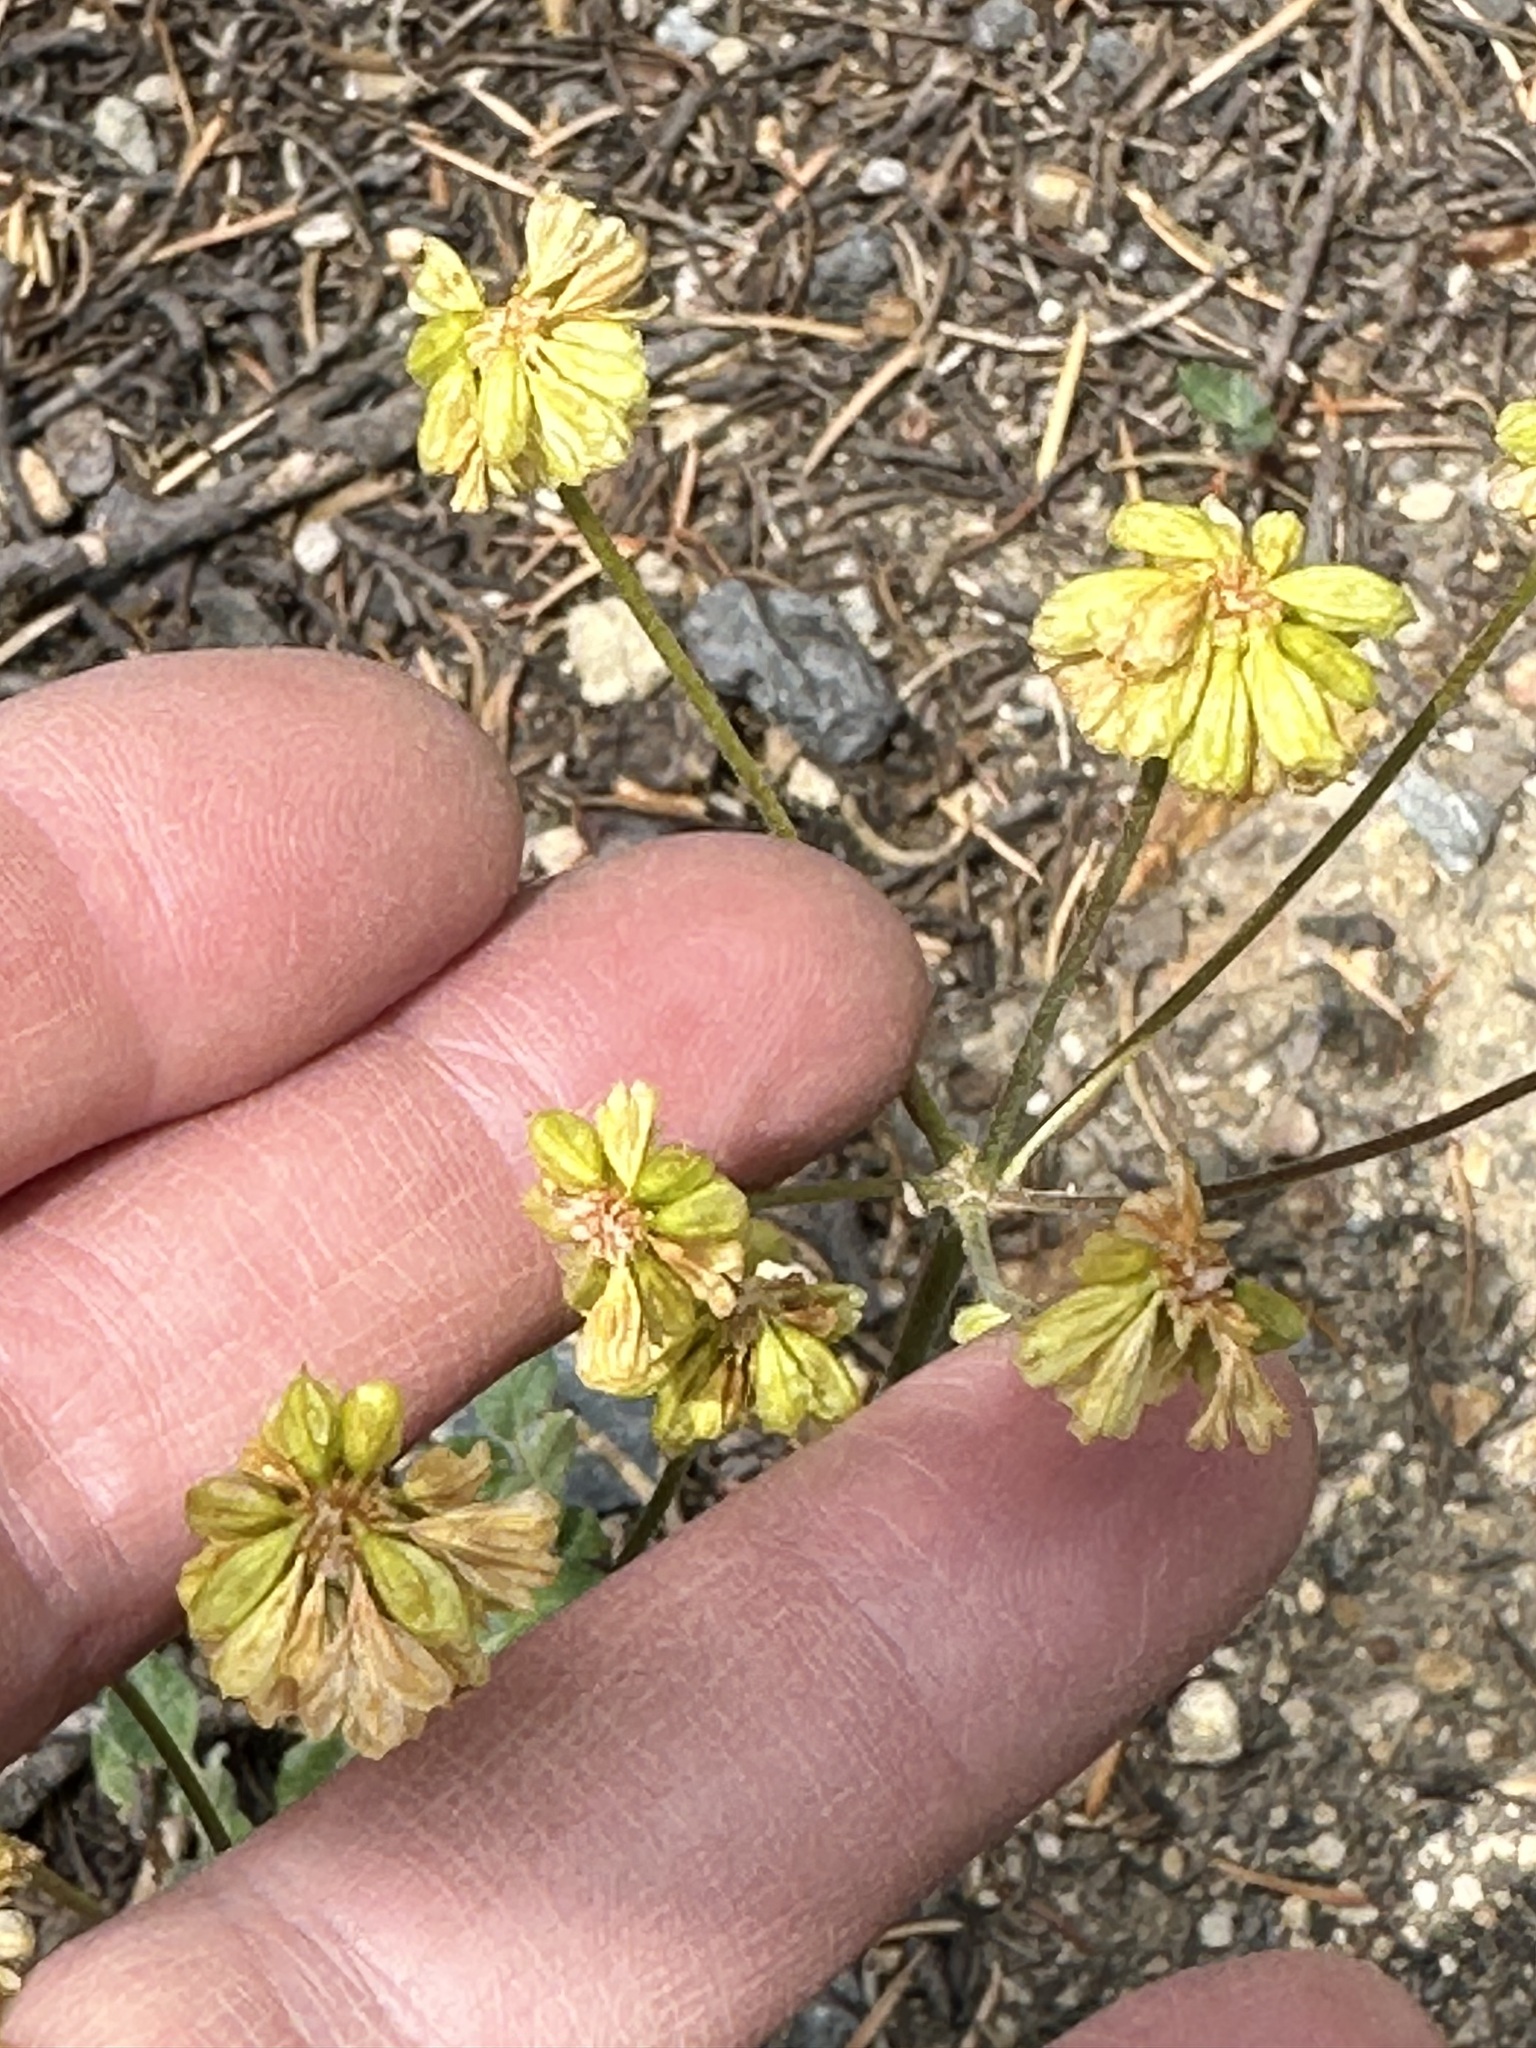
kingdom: Plantae
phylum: Tracheophyta
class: Magnoliopsida
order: Caryophyllales
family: Polygonaceae
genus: Eriogonum
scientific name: Eriogonum umbellatum
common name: Sulfur-buckwheat
